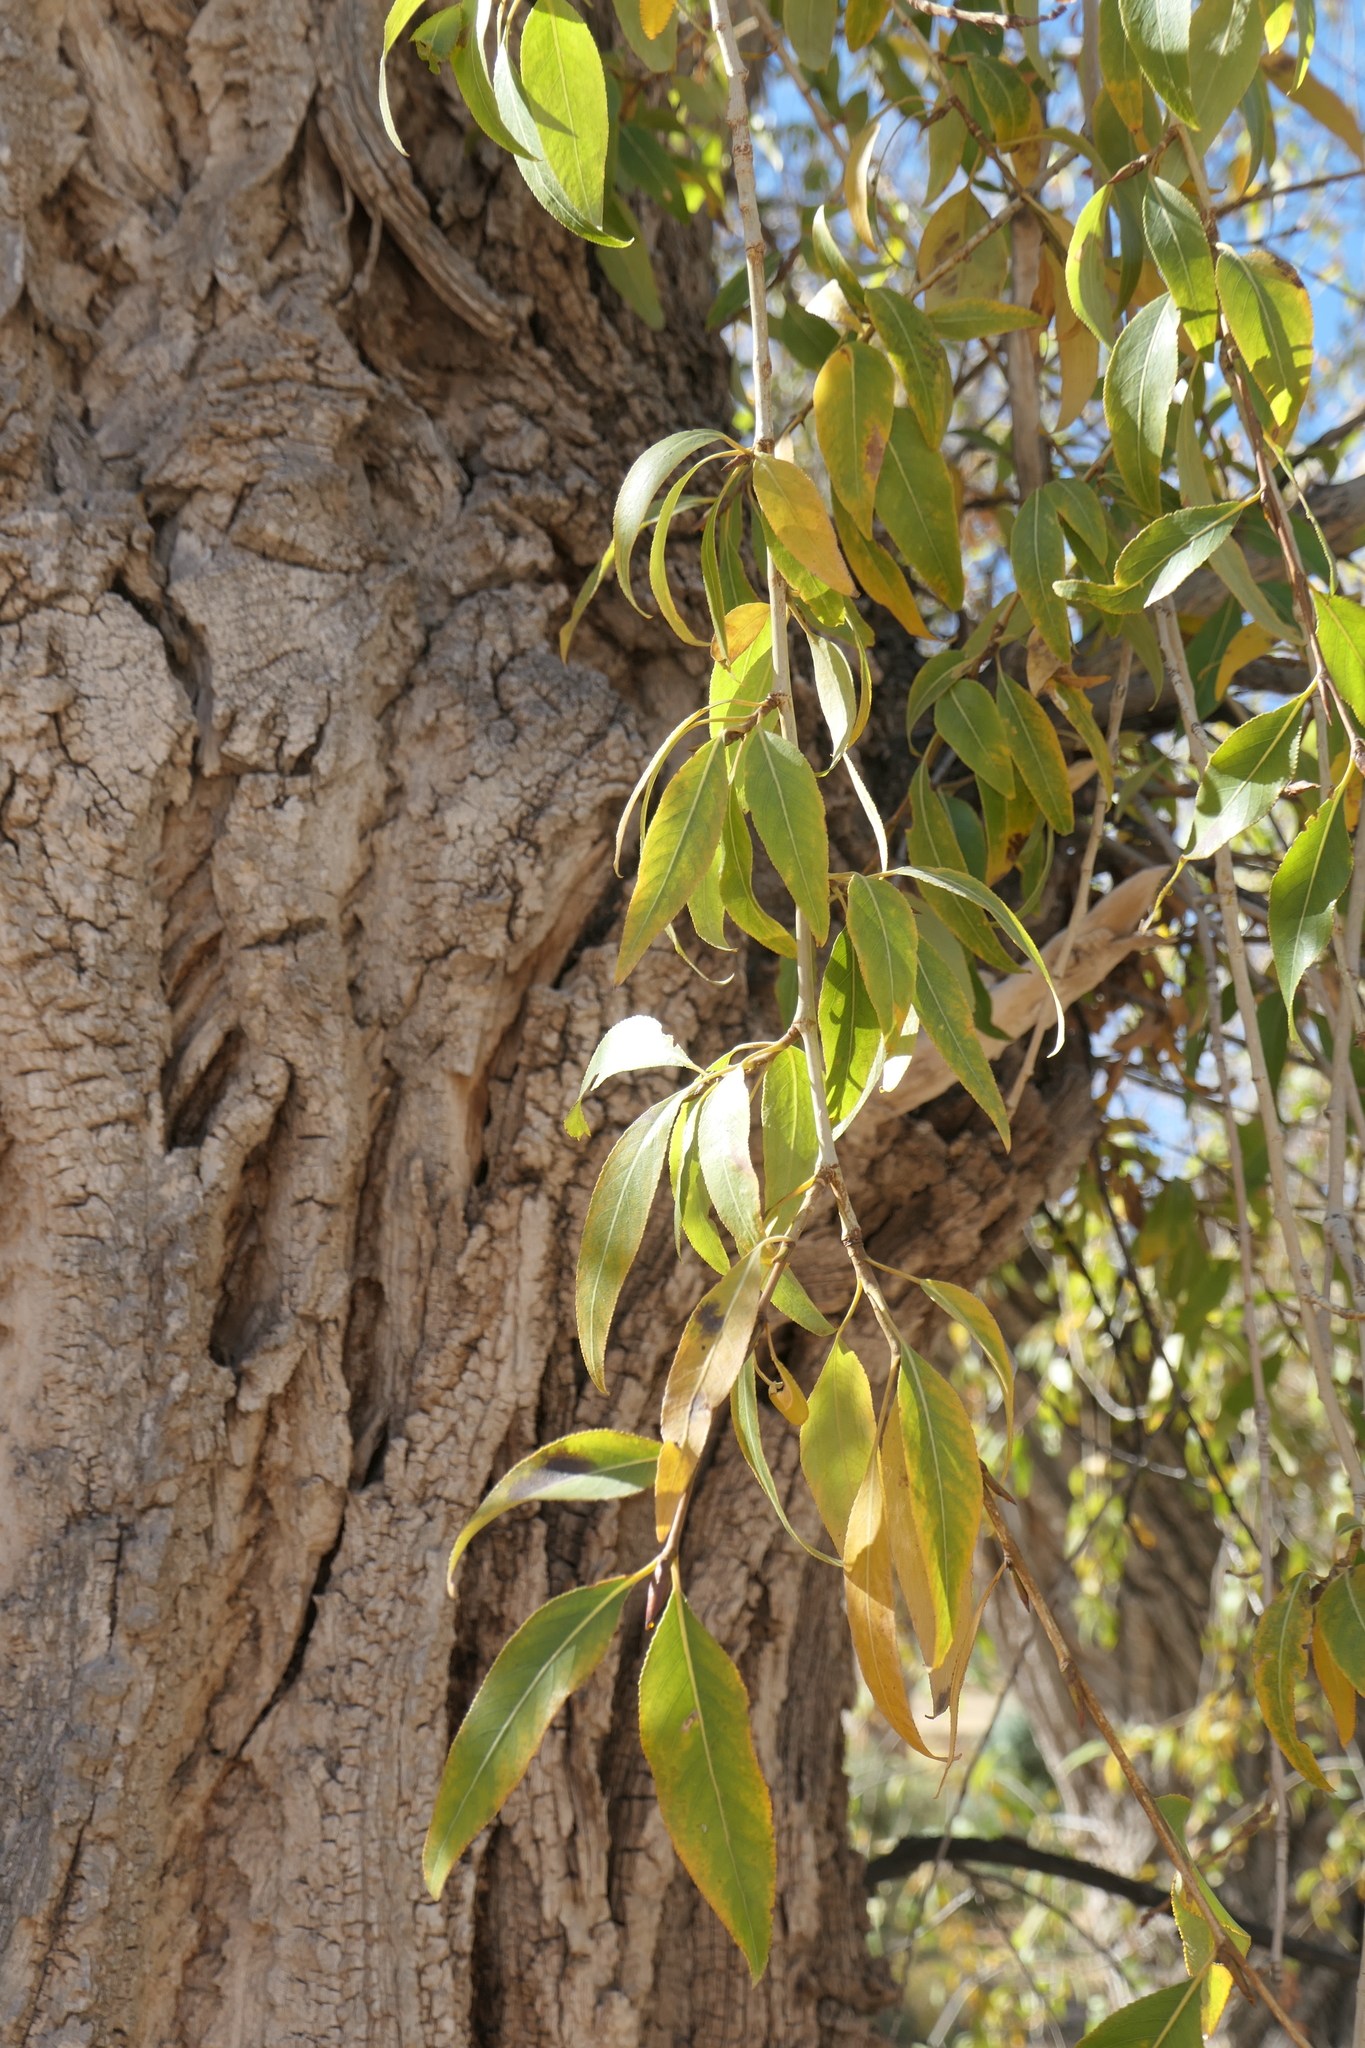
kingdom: Plantae
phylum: Tracheophyta
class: Magnoliopsida
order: Malpighiales
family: Salicaceae
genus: Populus
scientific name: Populus angustifolia
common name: Willow cottonwood
